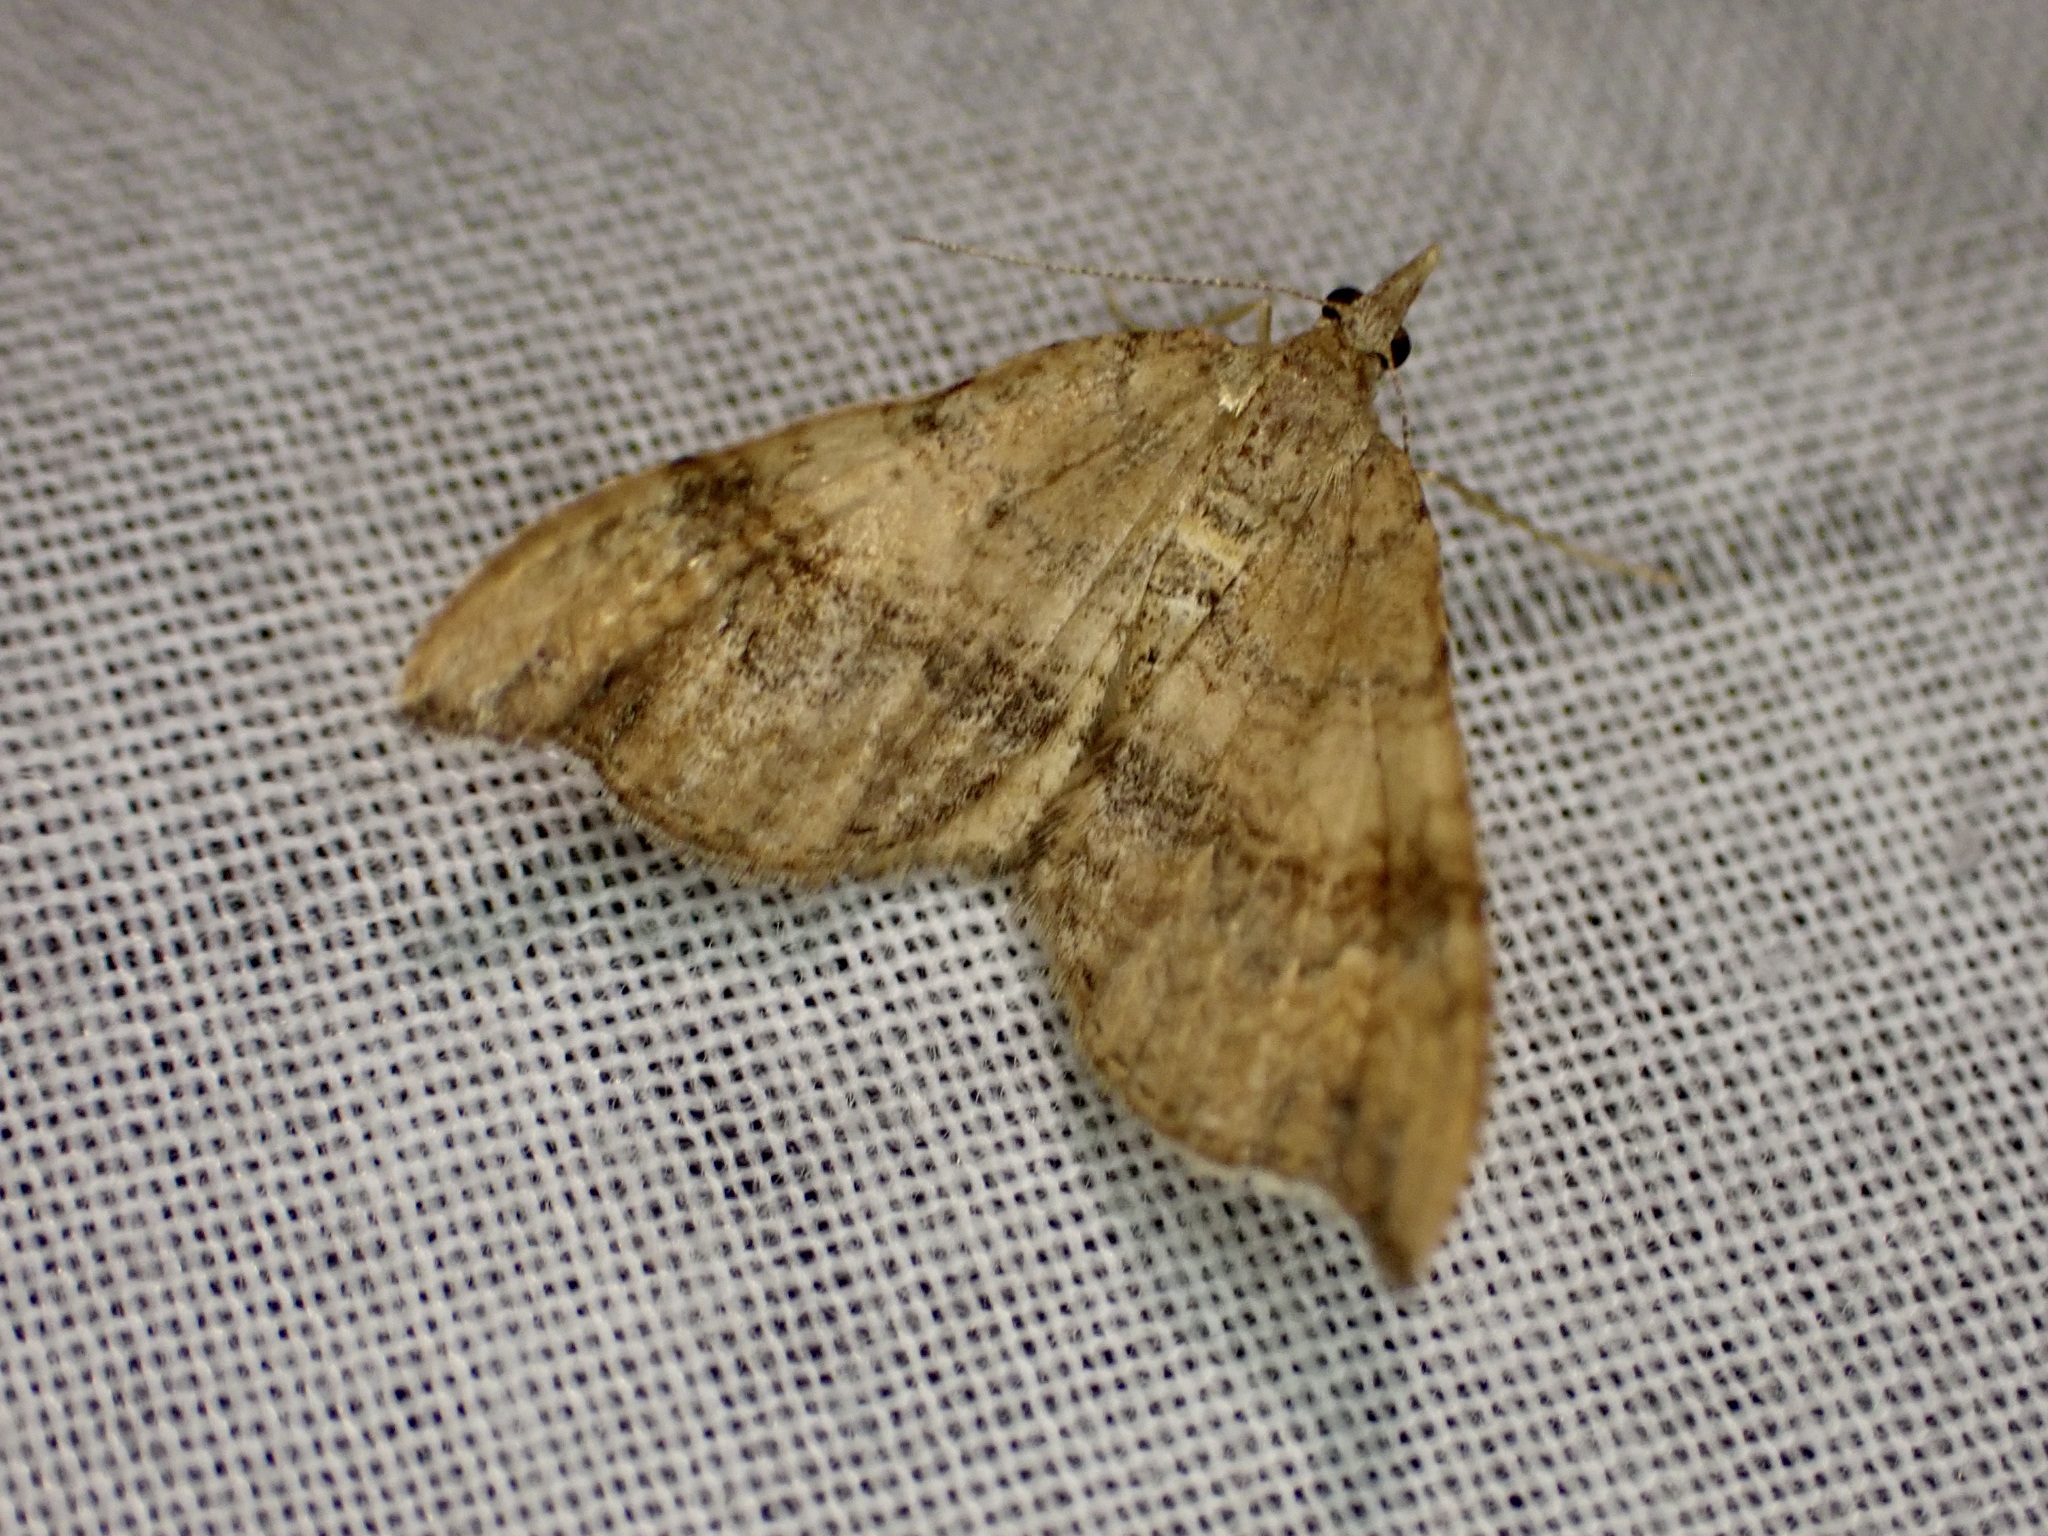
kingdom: Animalia
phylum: Arthropoda
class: Insecta
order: Lepidoptera
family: Geometridae
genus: Homodotis
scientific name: Homodotis megaspilata
